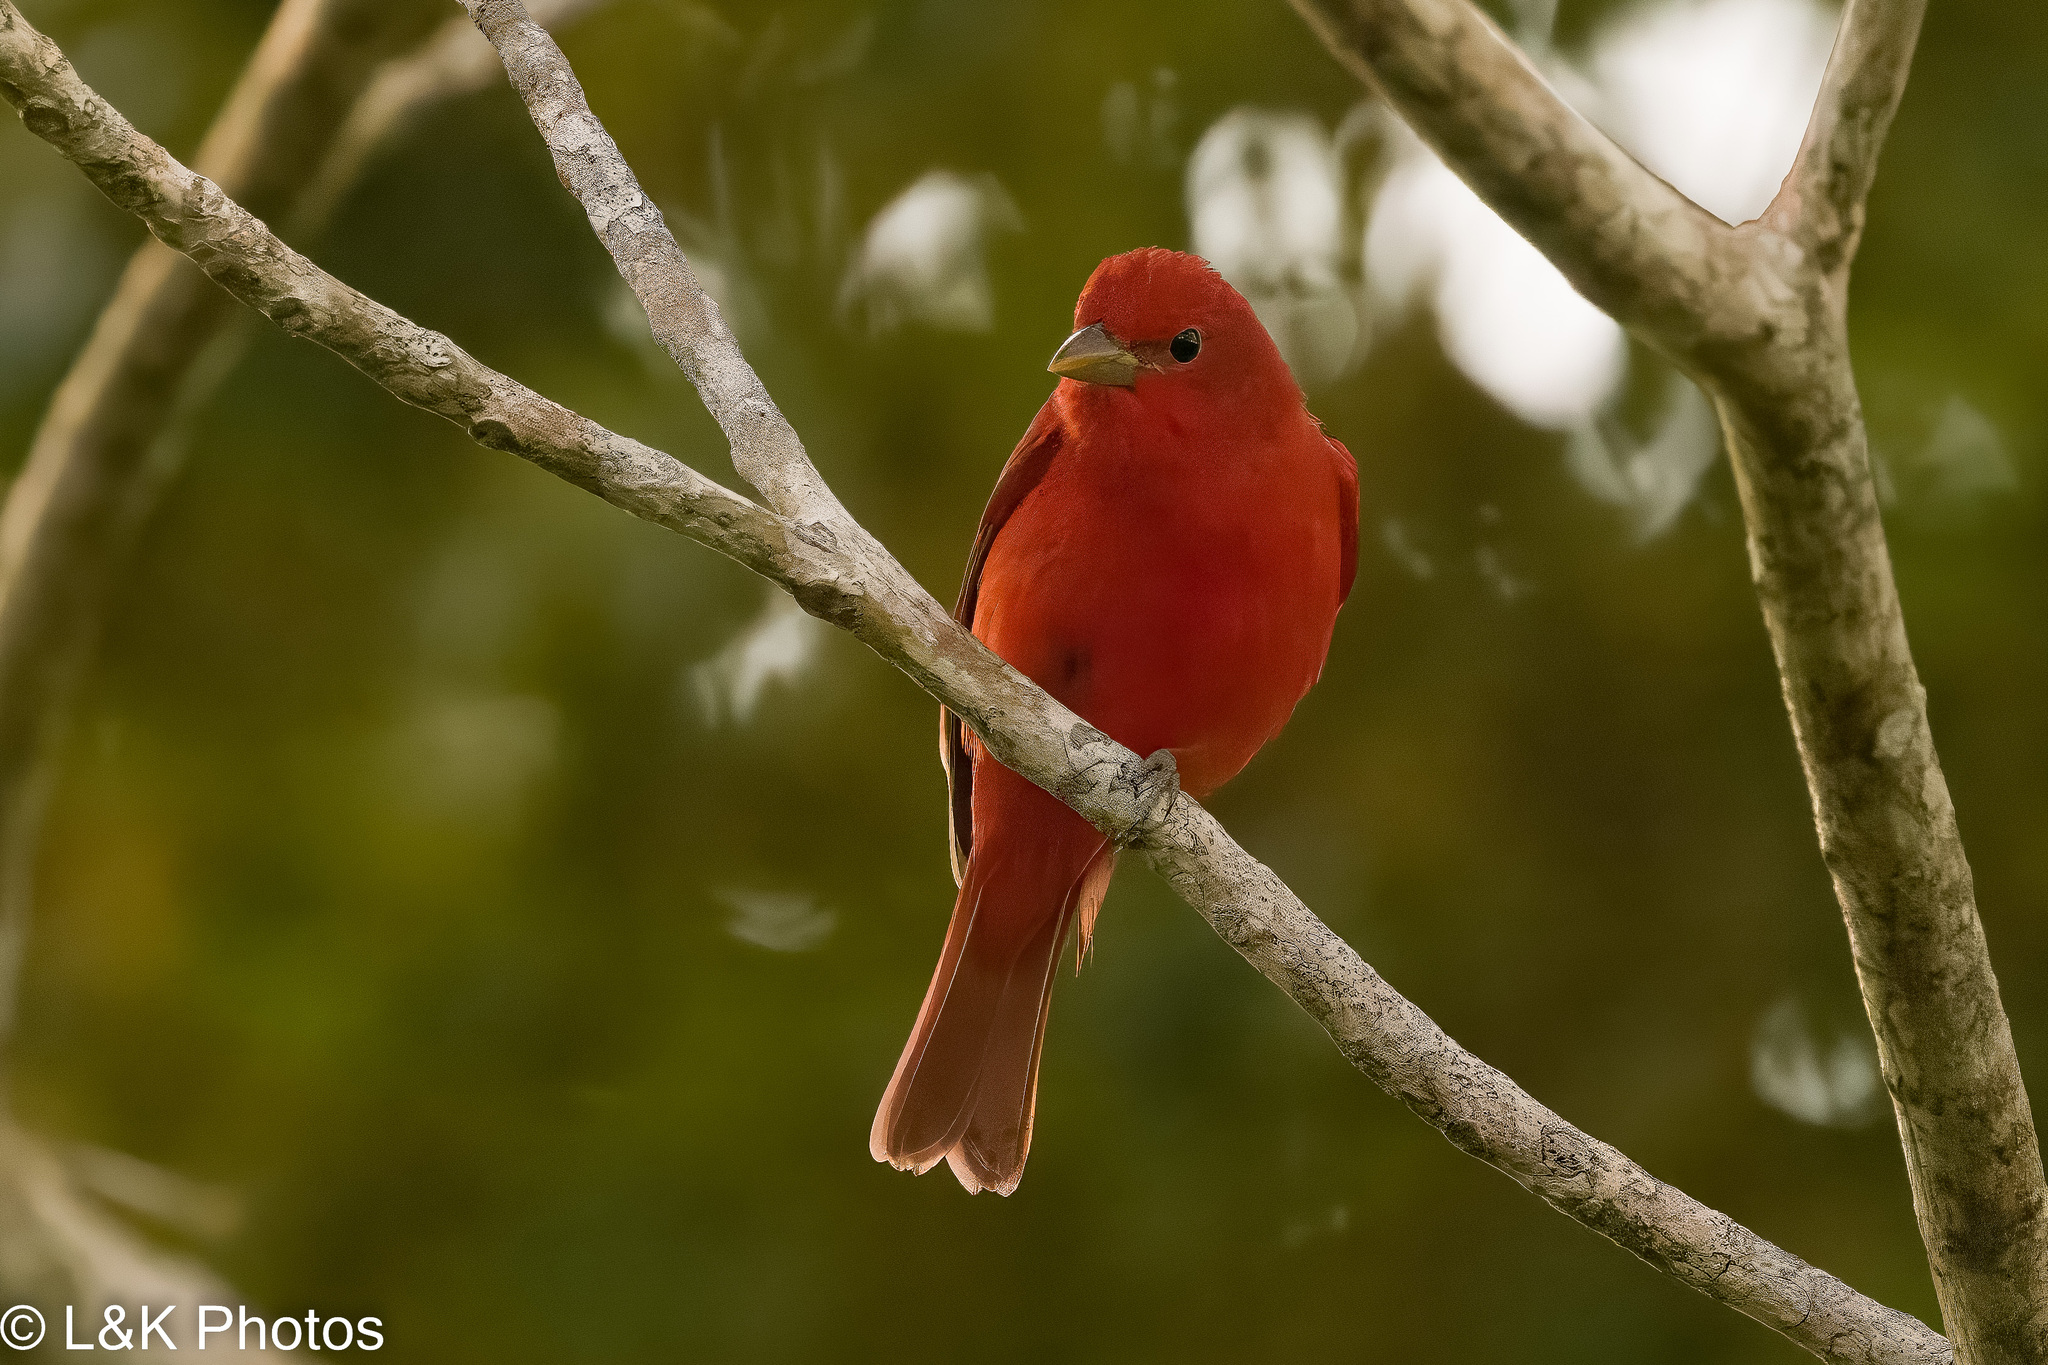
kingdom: Animalia
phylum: Chordata
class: Aves
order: Passeriformes
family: Cardinalidae
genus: Piranga
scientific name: Piranga rubra
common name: Summer tanager
